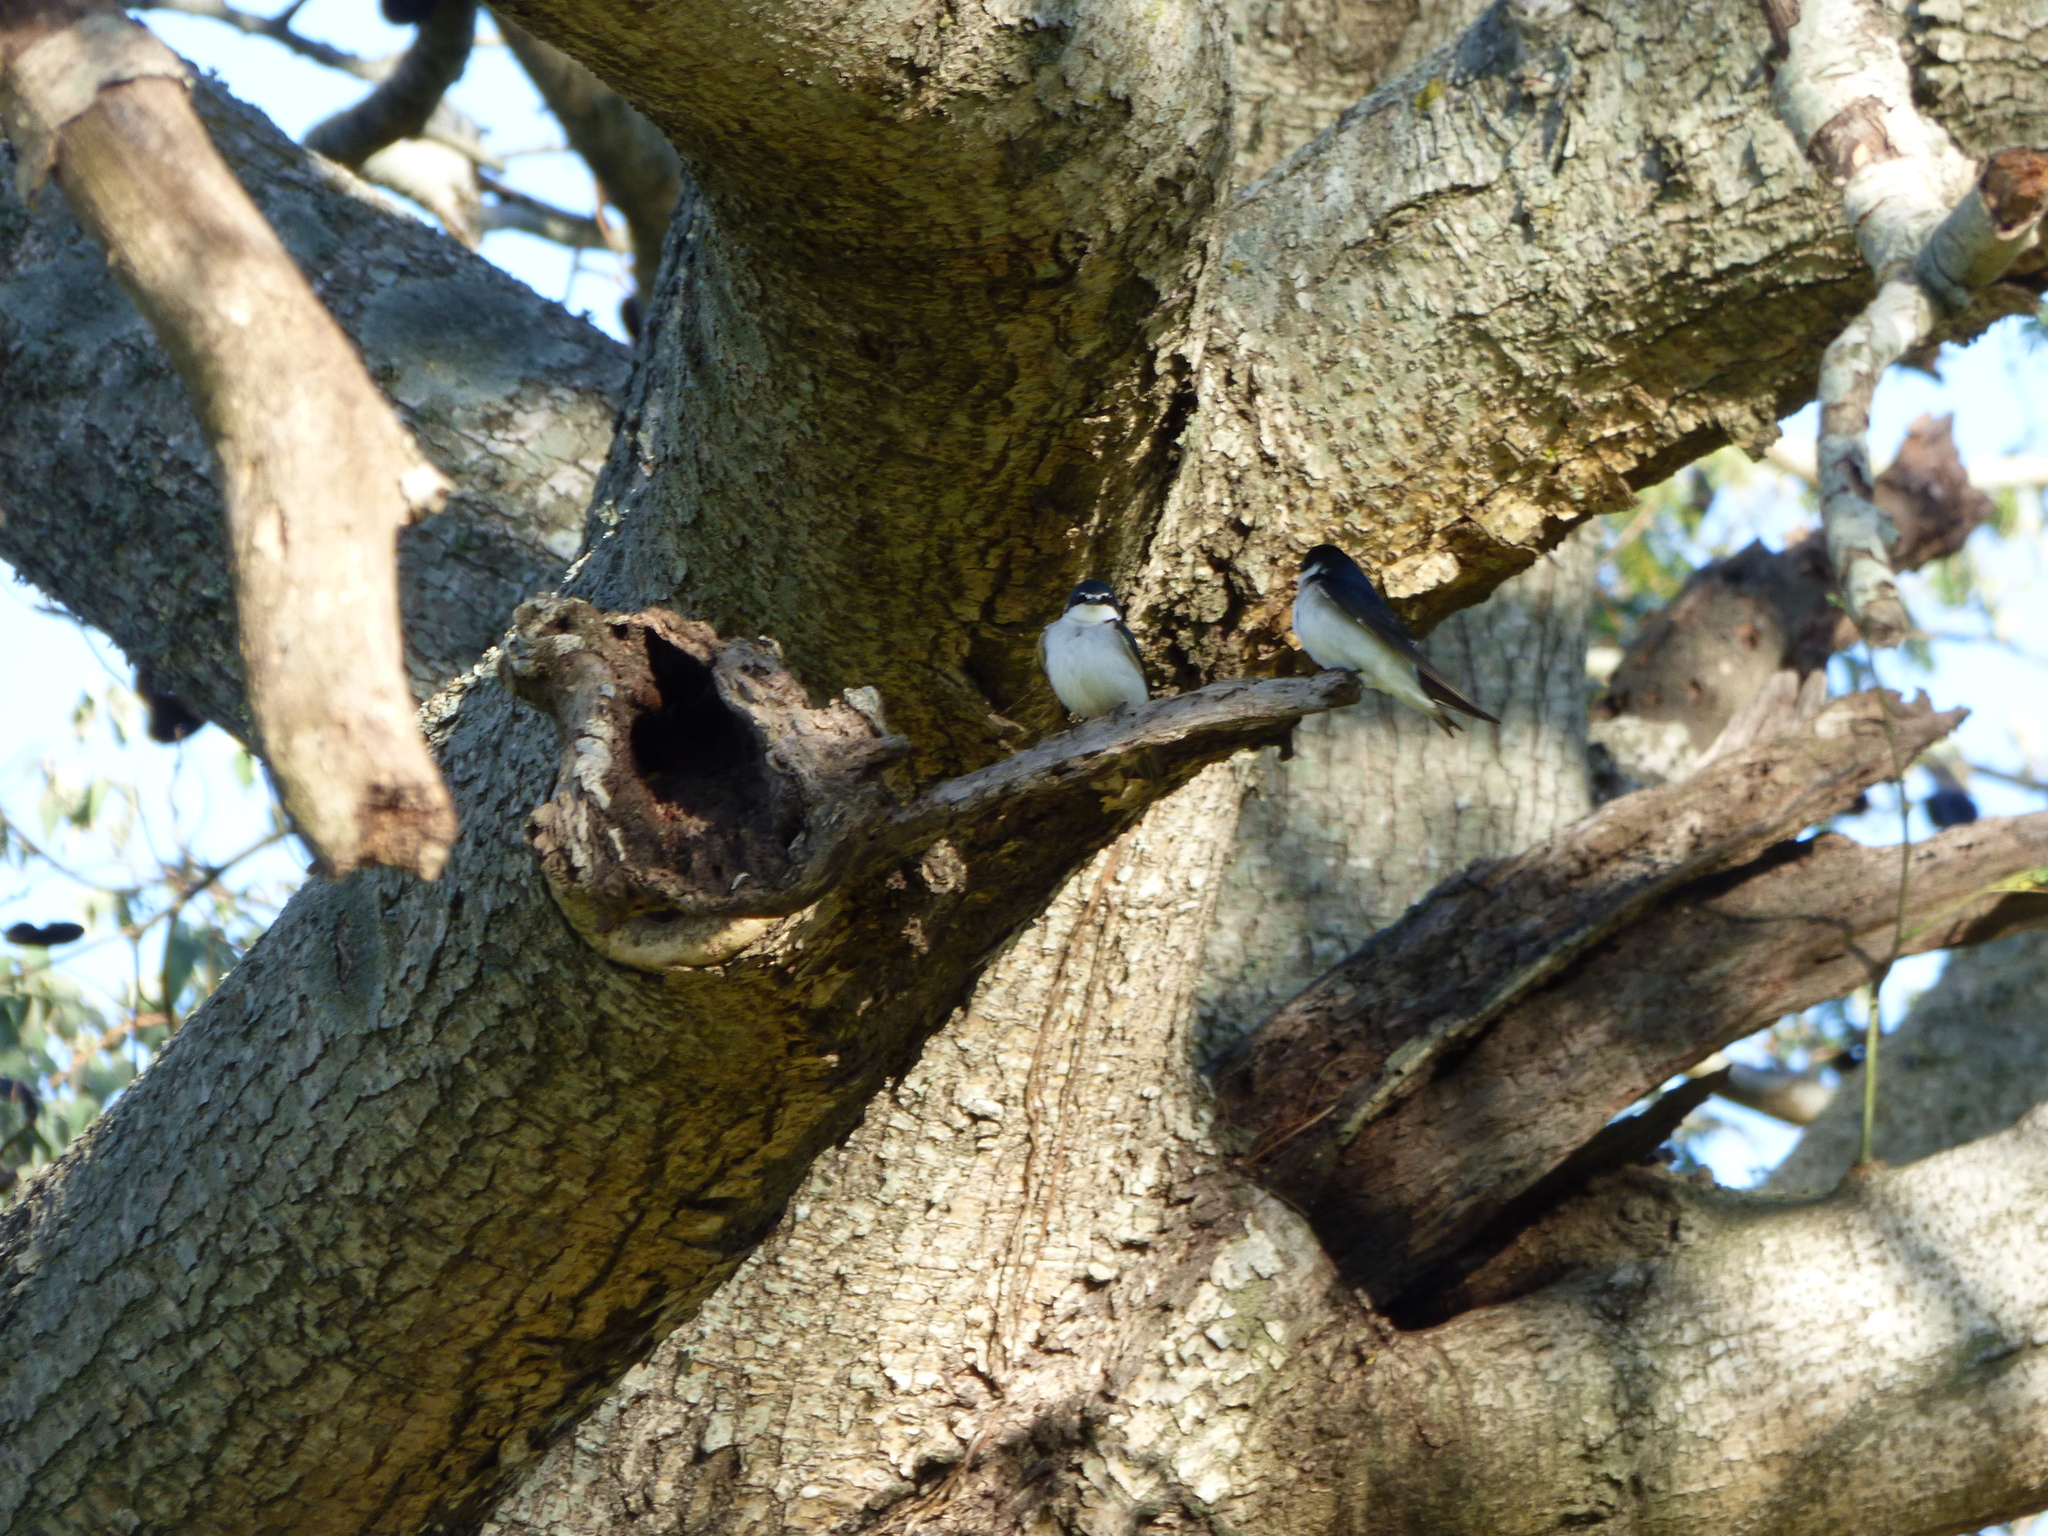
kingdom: Animalia
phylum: Chordata
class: Aves
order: Passeriformes
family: Hirundinidae
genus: Tachycineta
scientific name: Tachycineta leucorrhoa
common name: White-rumped swallow
